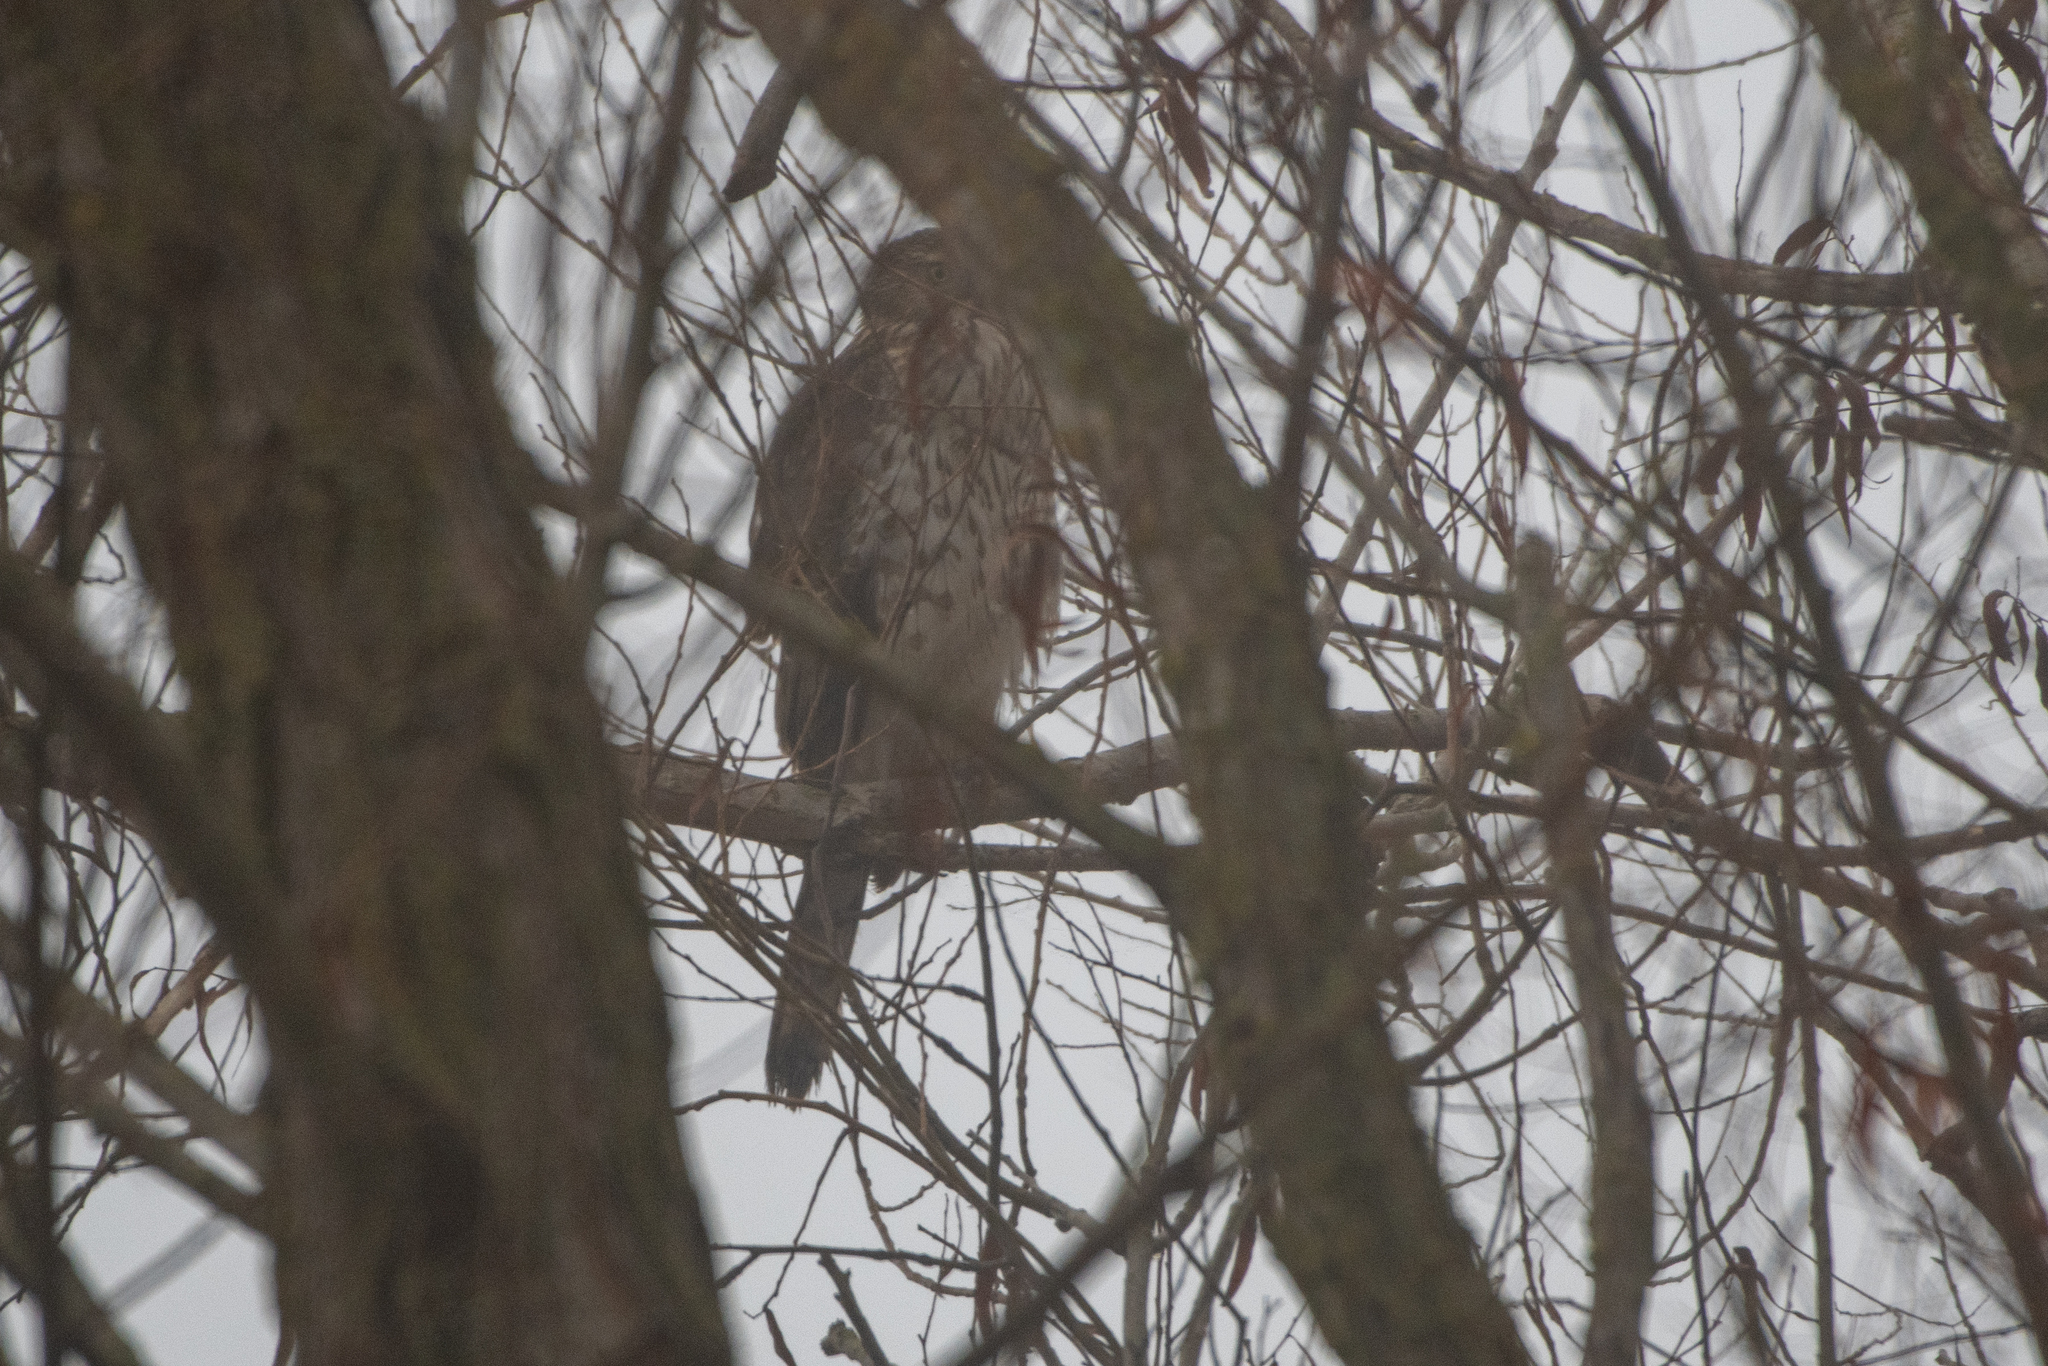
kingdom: Animalia
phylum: Chordata
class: Aves
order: Accipitriformes
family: Accipitridae
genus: Accipiter
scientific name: Accipiter cooperii
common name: Cooper's hawk
